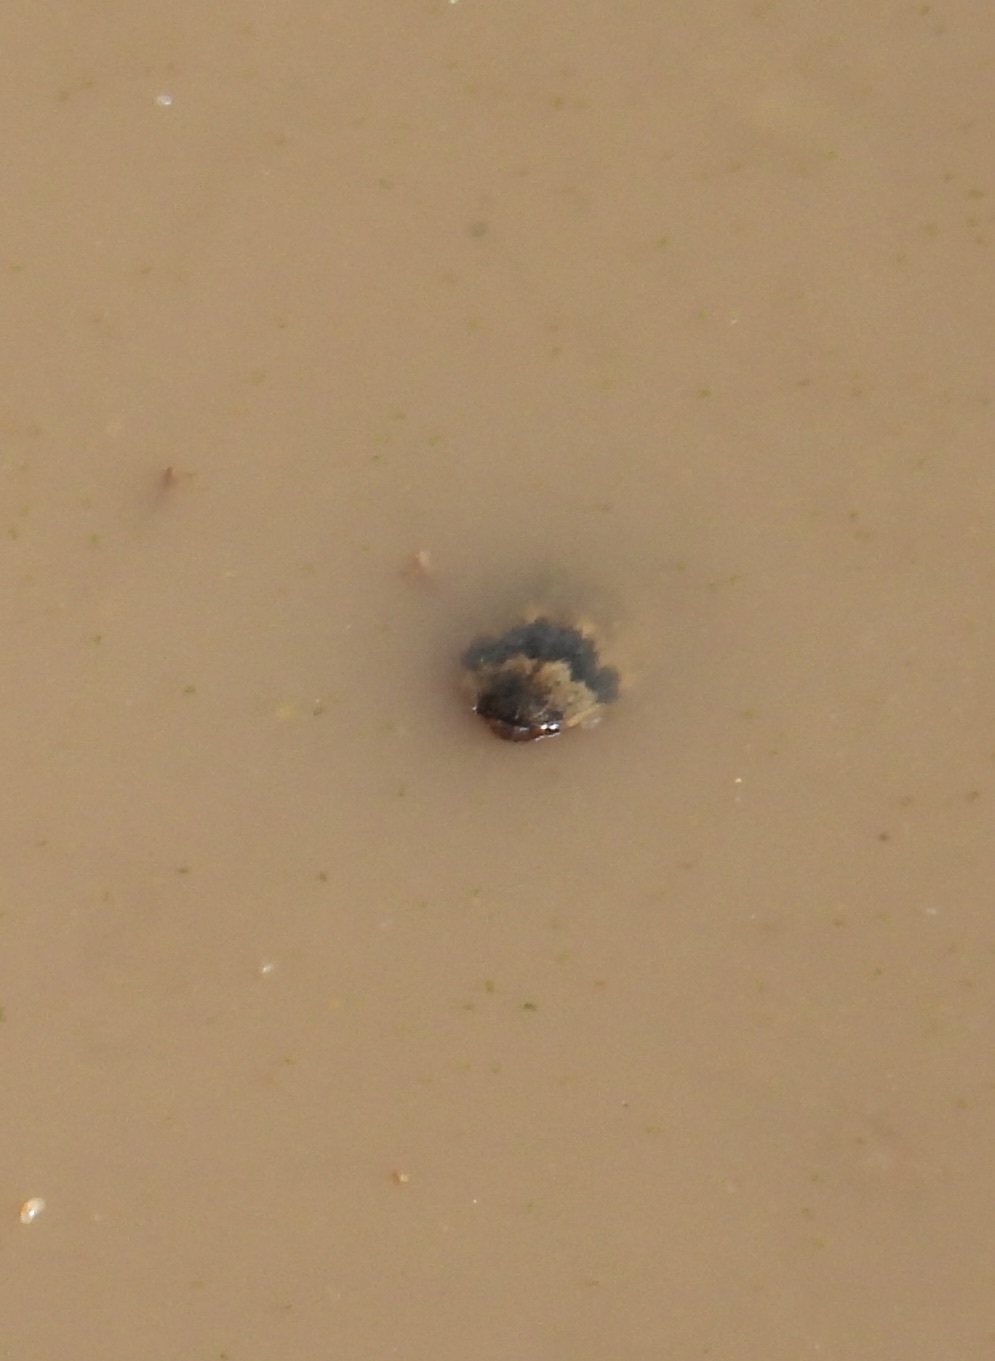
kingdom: Animalia
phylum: Arthropoda
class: Insecta
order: Coleoptera
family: Dytiscidae
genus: Thermonectus
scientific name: Thermonectus nigrofasciatus
